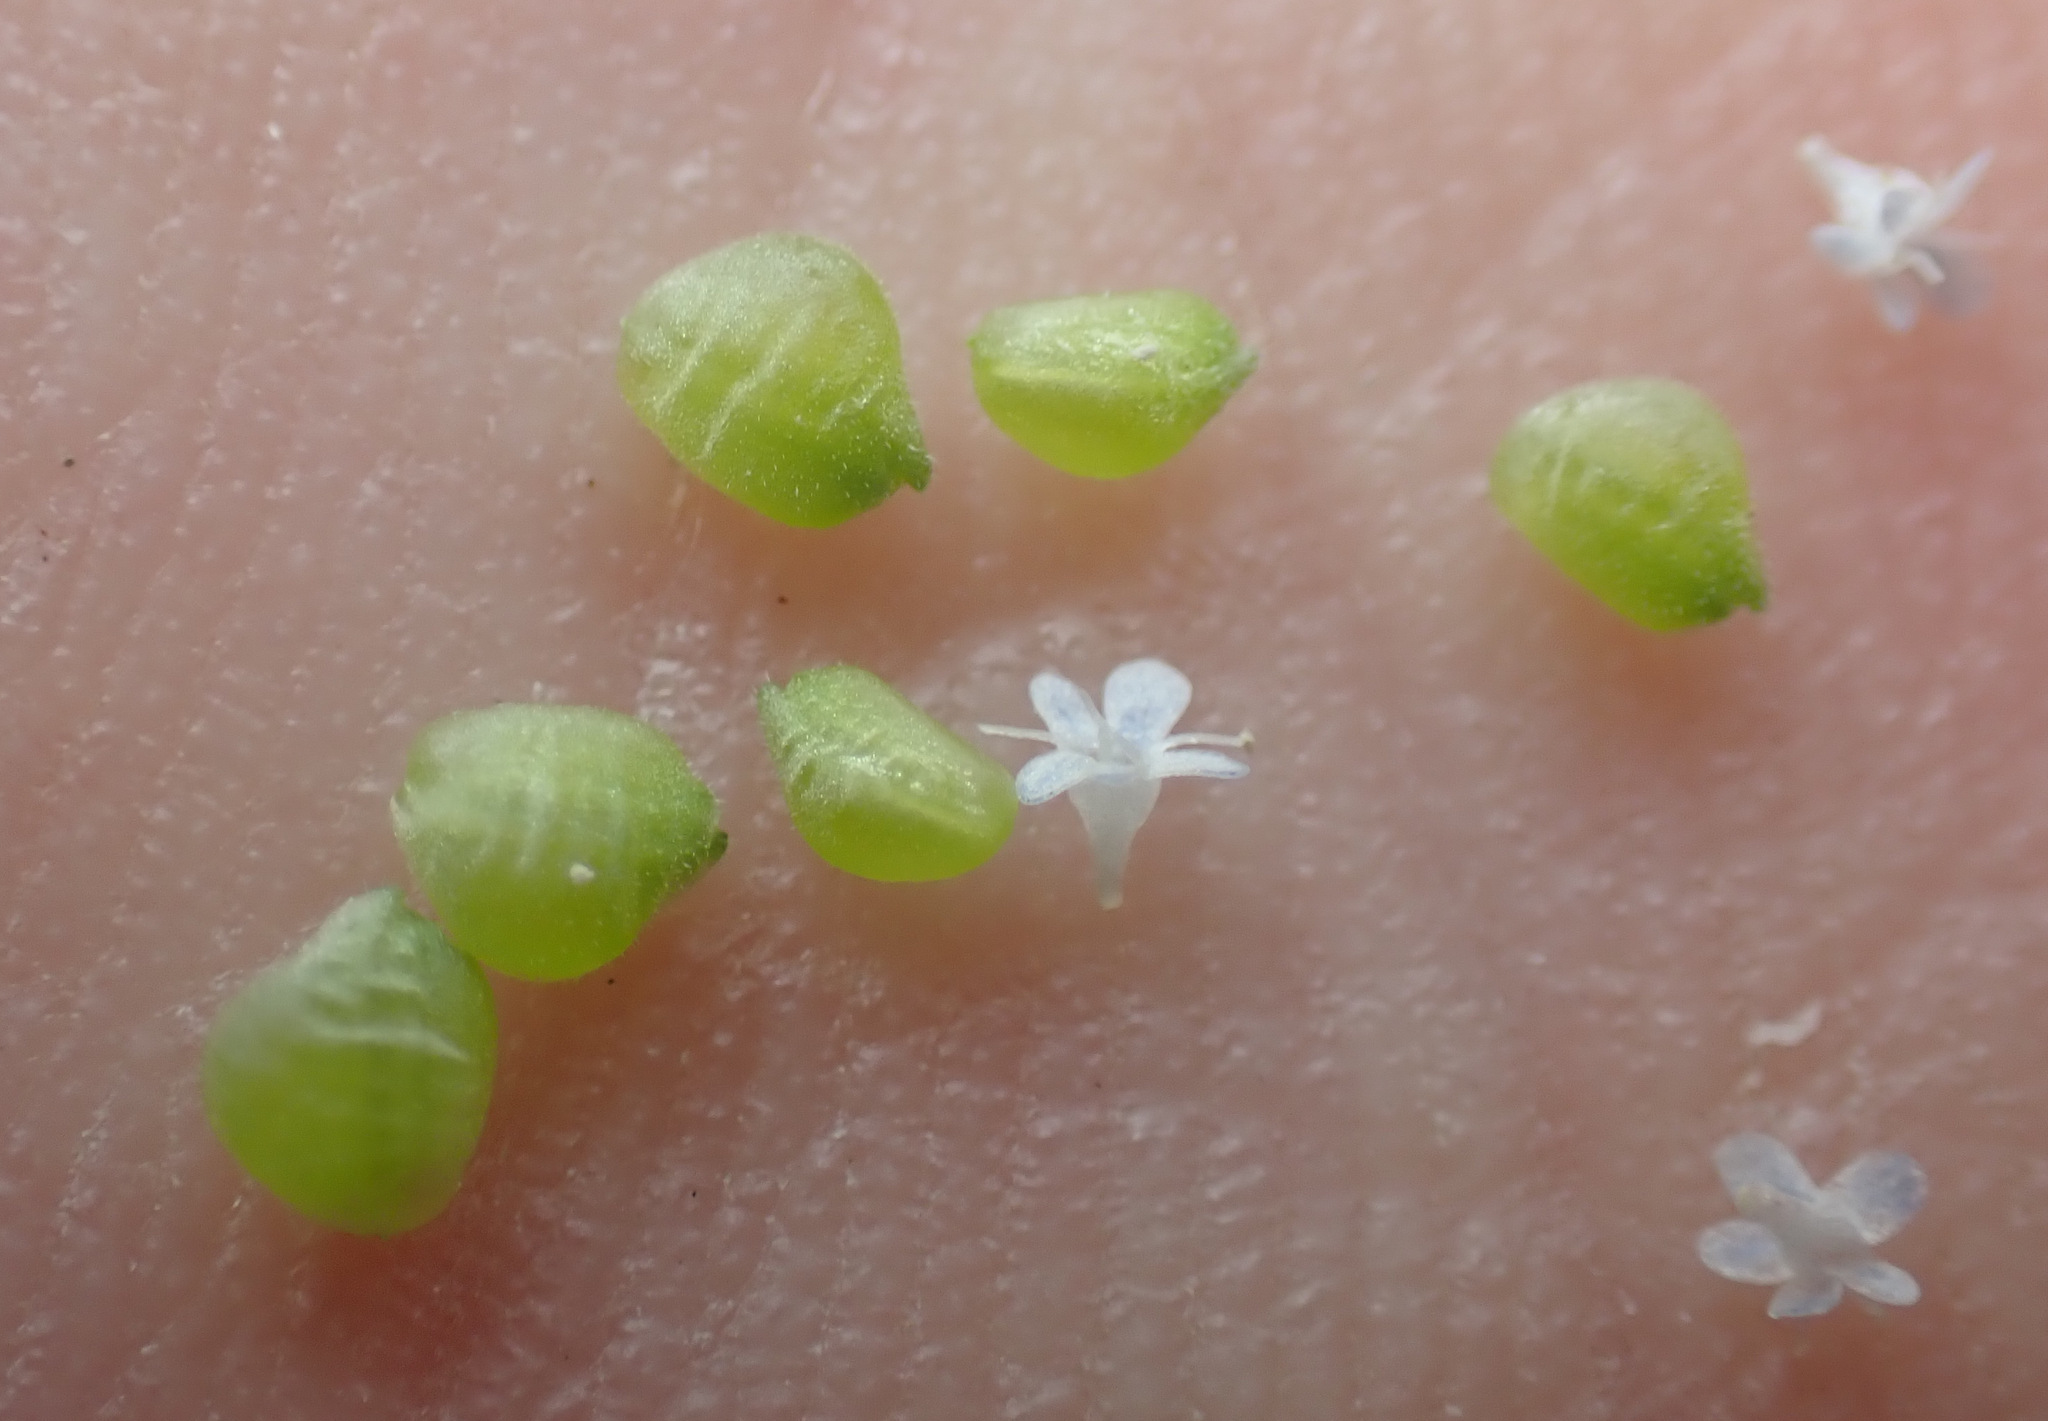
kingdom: Plantae
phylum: Tracheophyta
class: Magnoliopsida
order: Dipsacales
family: Caprifoliaceae
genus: Valerianella
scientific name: Valerianella locusta
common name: Common cornsalad
